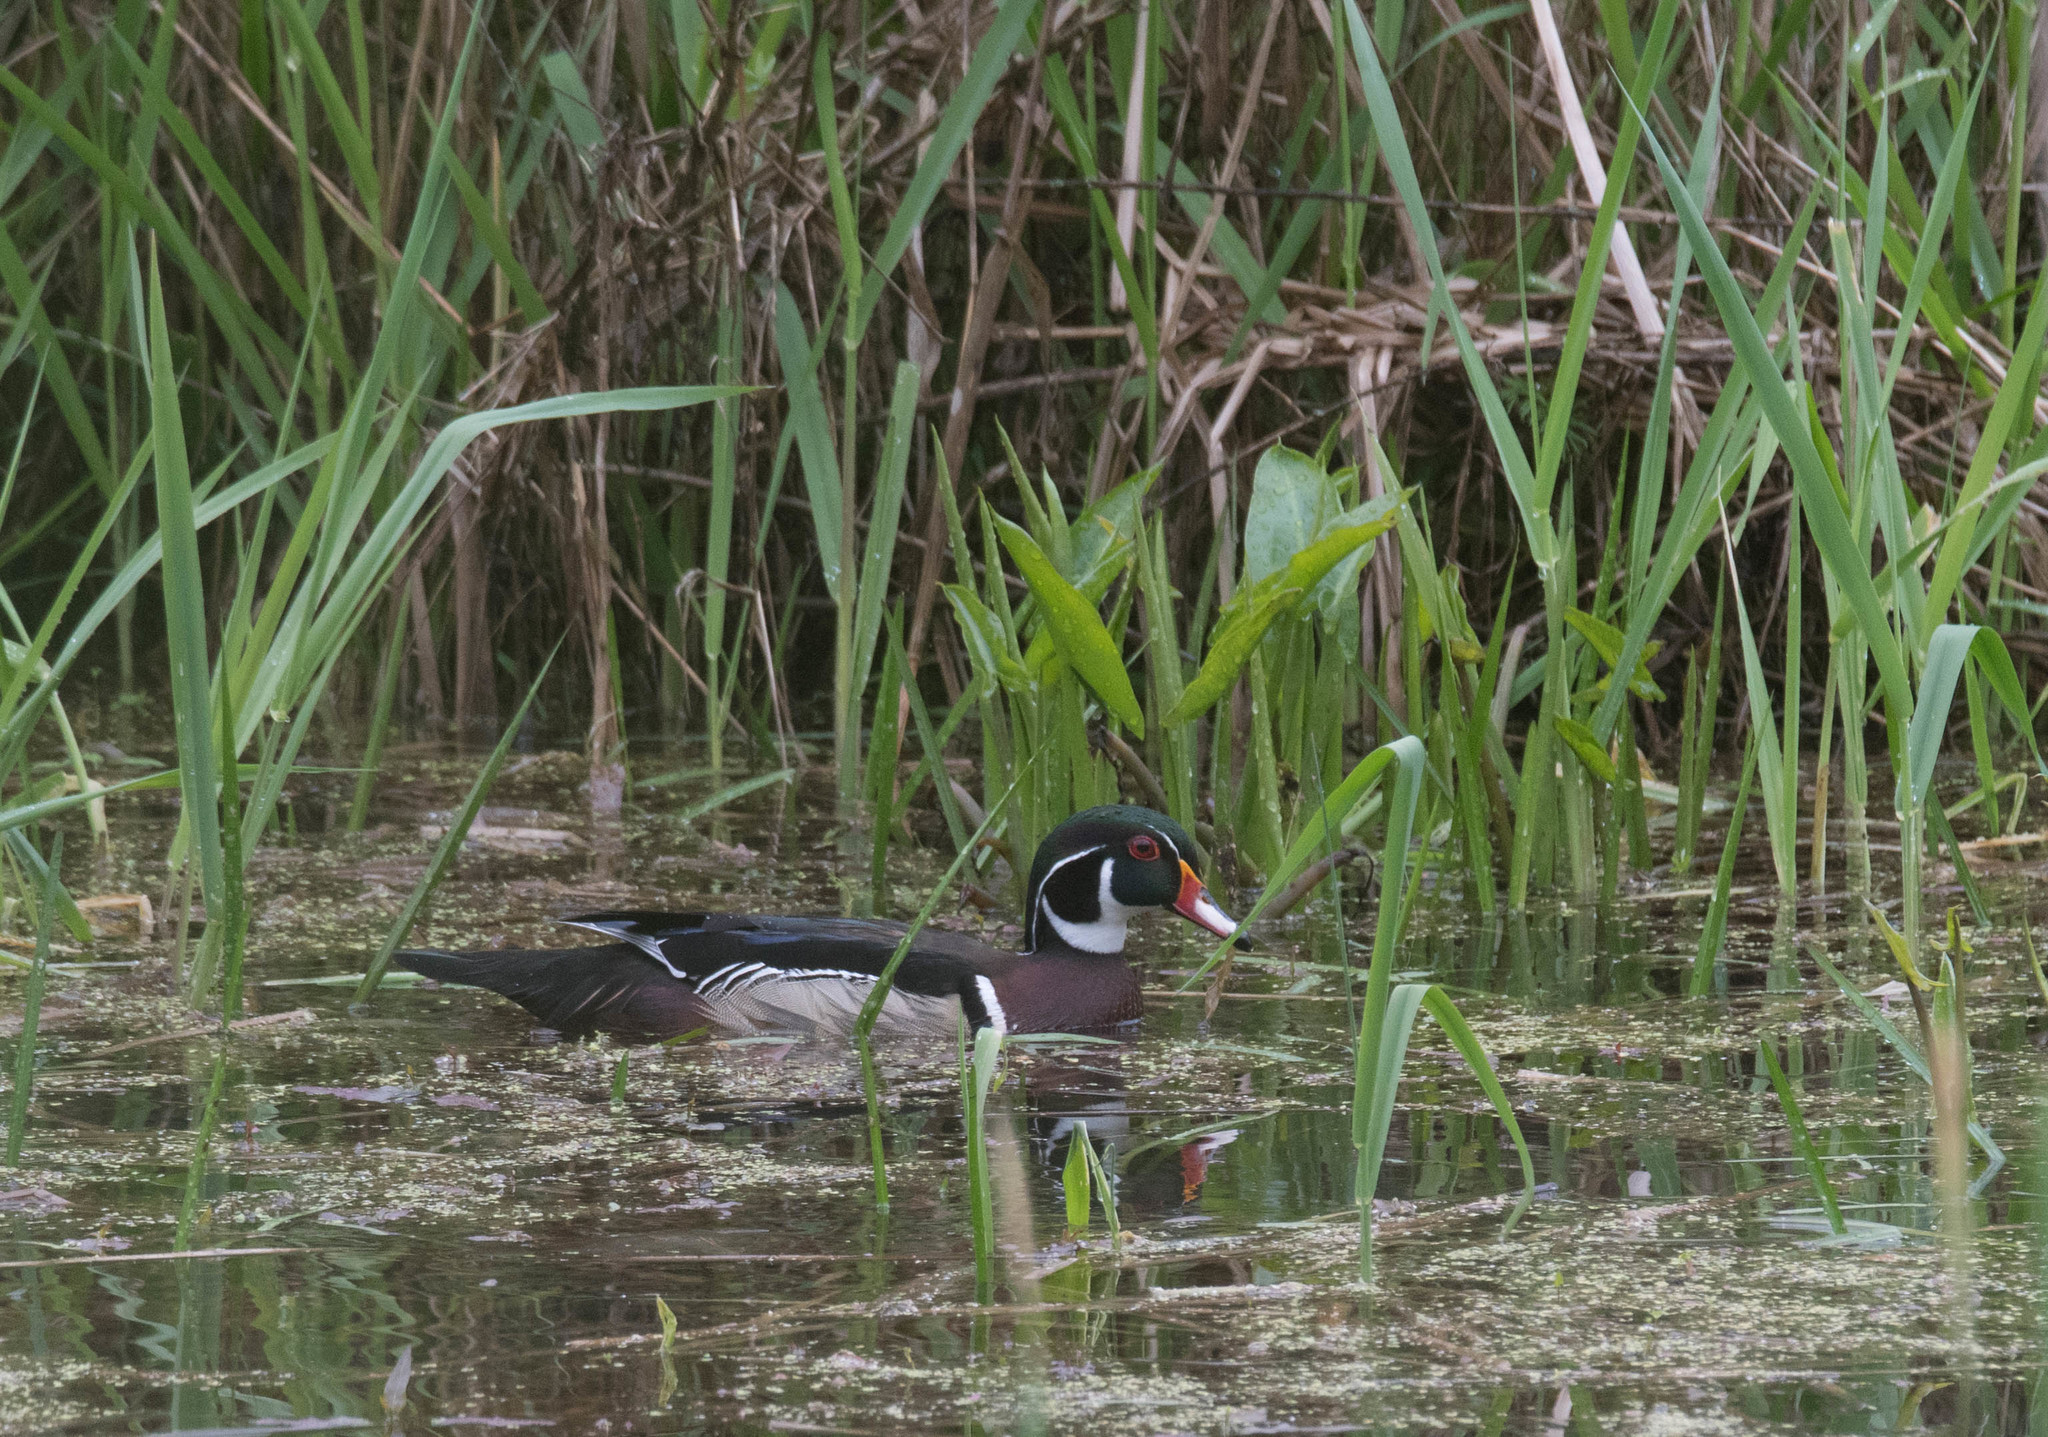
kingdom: Animalia
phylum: Chordata
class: Aves
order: Anseriformes
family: Anatidae
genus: Aix
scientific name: Aix sponsa
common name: Wood duck
